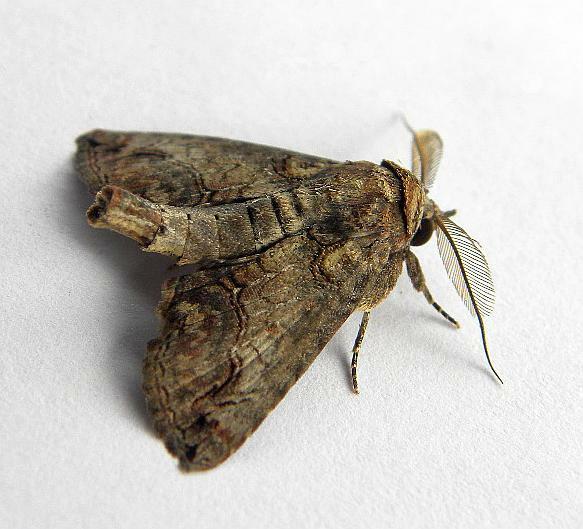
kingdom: Animalia
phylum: Arthropoda
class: Insecta
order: Lepidoptera
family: Euteliidae
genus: Paectes
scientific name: Paectes abrostoloides
